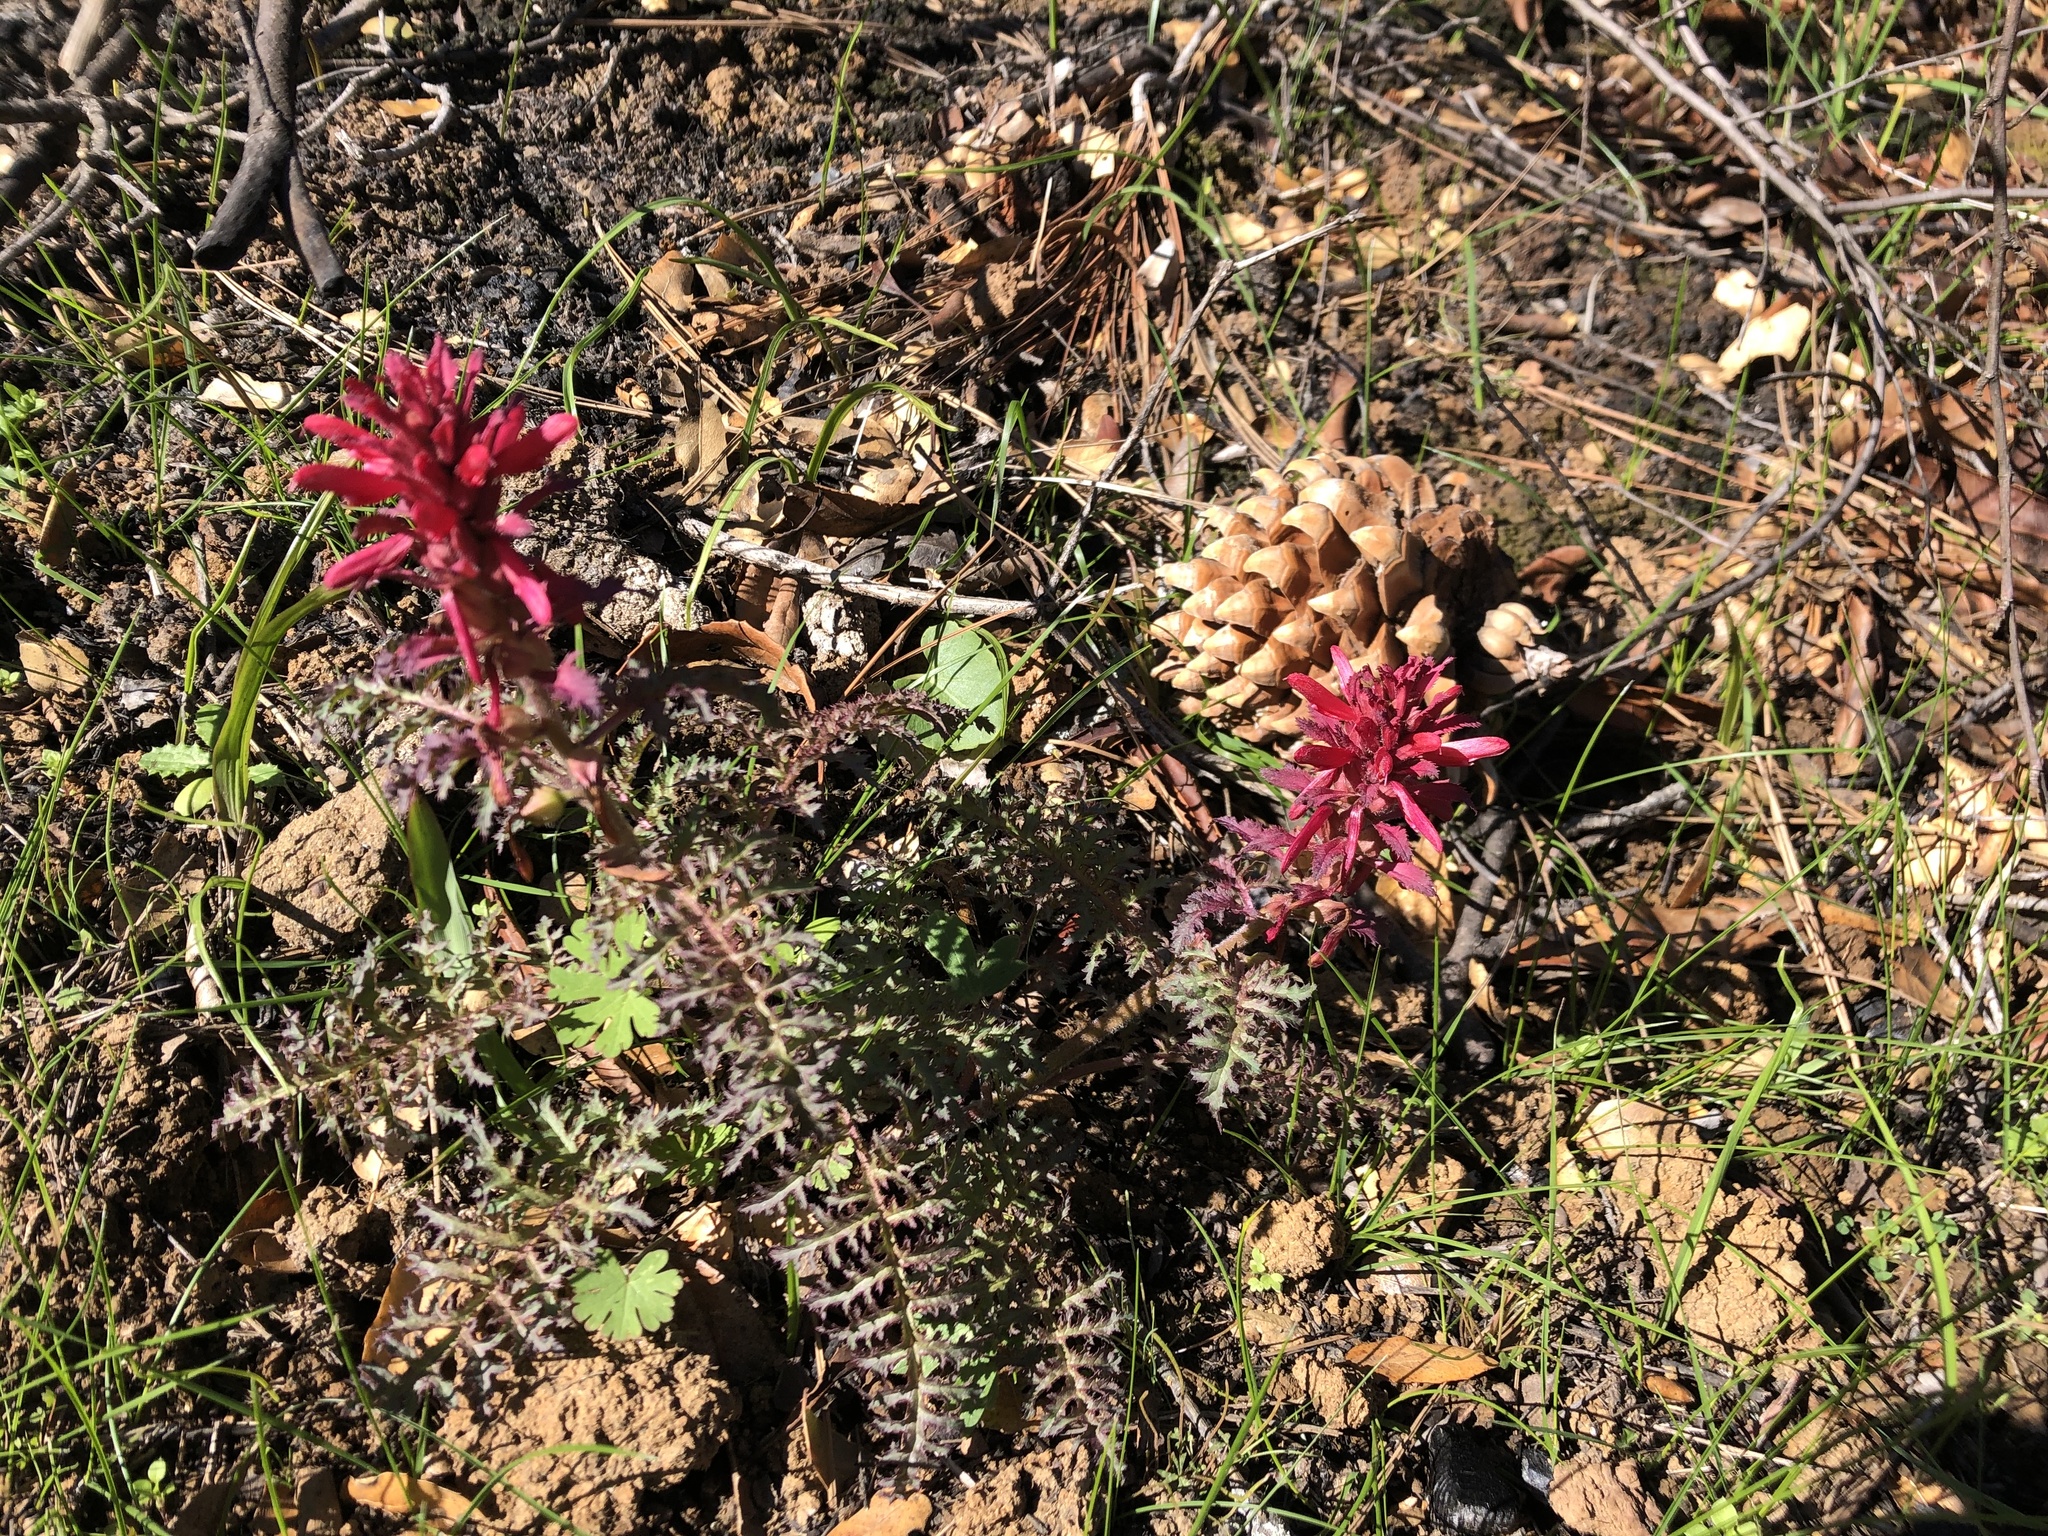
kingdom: Plantae
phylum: Tracheophyta
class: Magnoliopsida
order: Lamiales
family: Orobanchaceae
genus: Pedicularis
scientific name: Pedicularis densiflora
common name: Indian warrior
